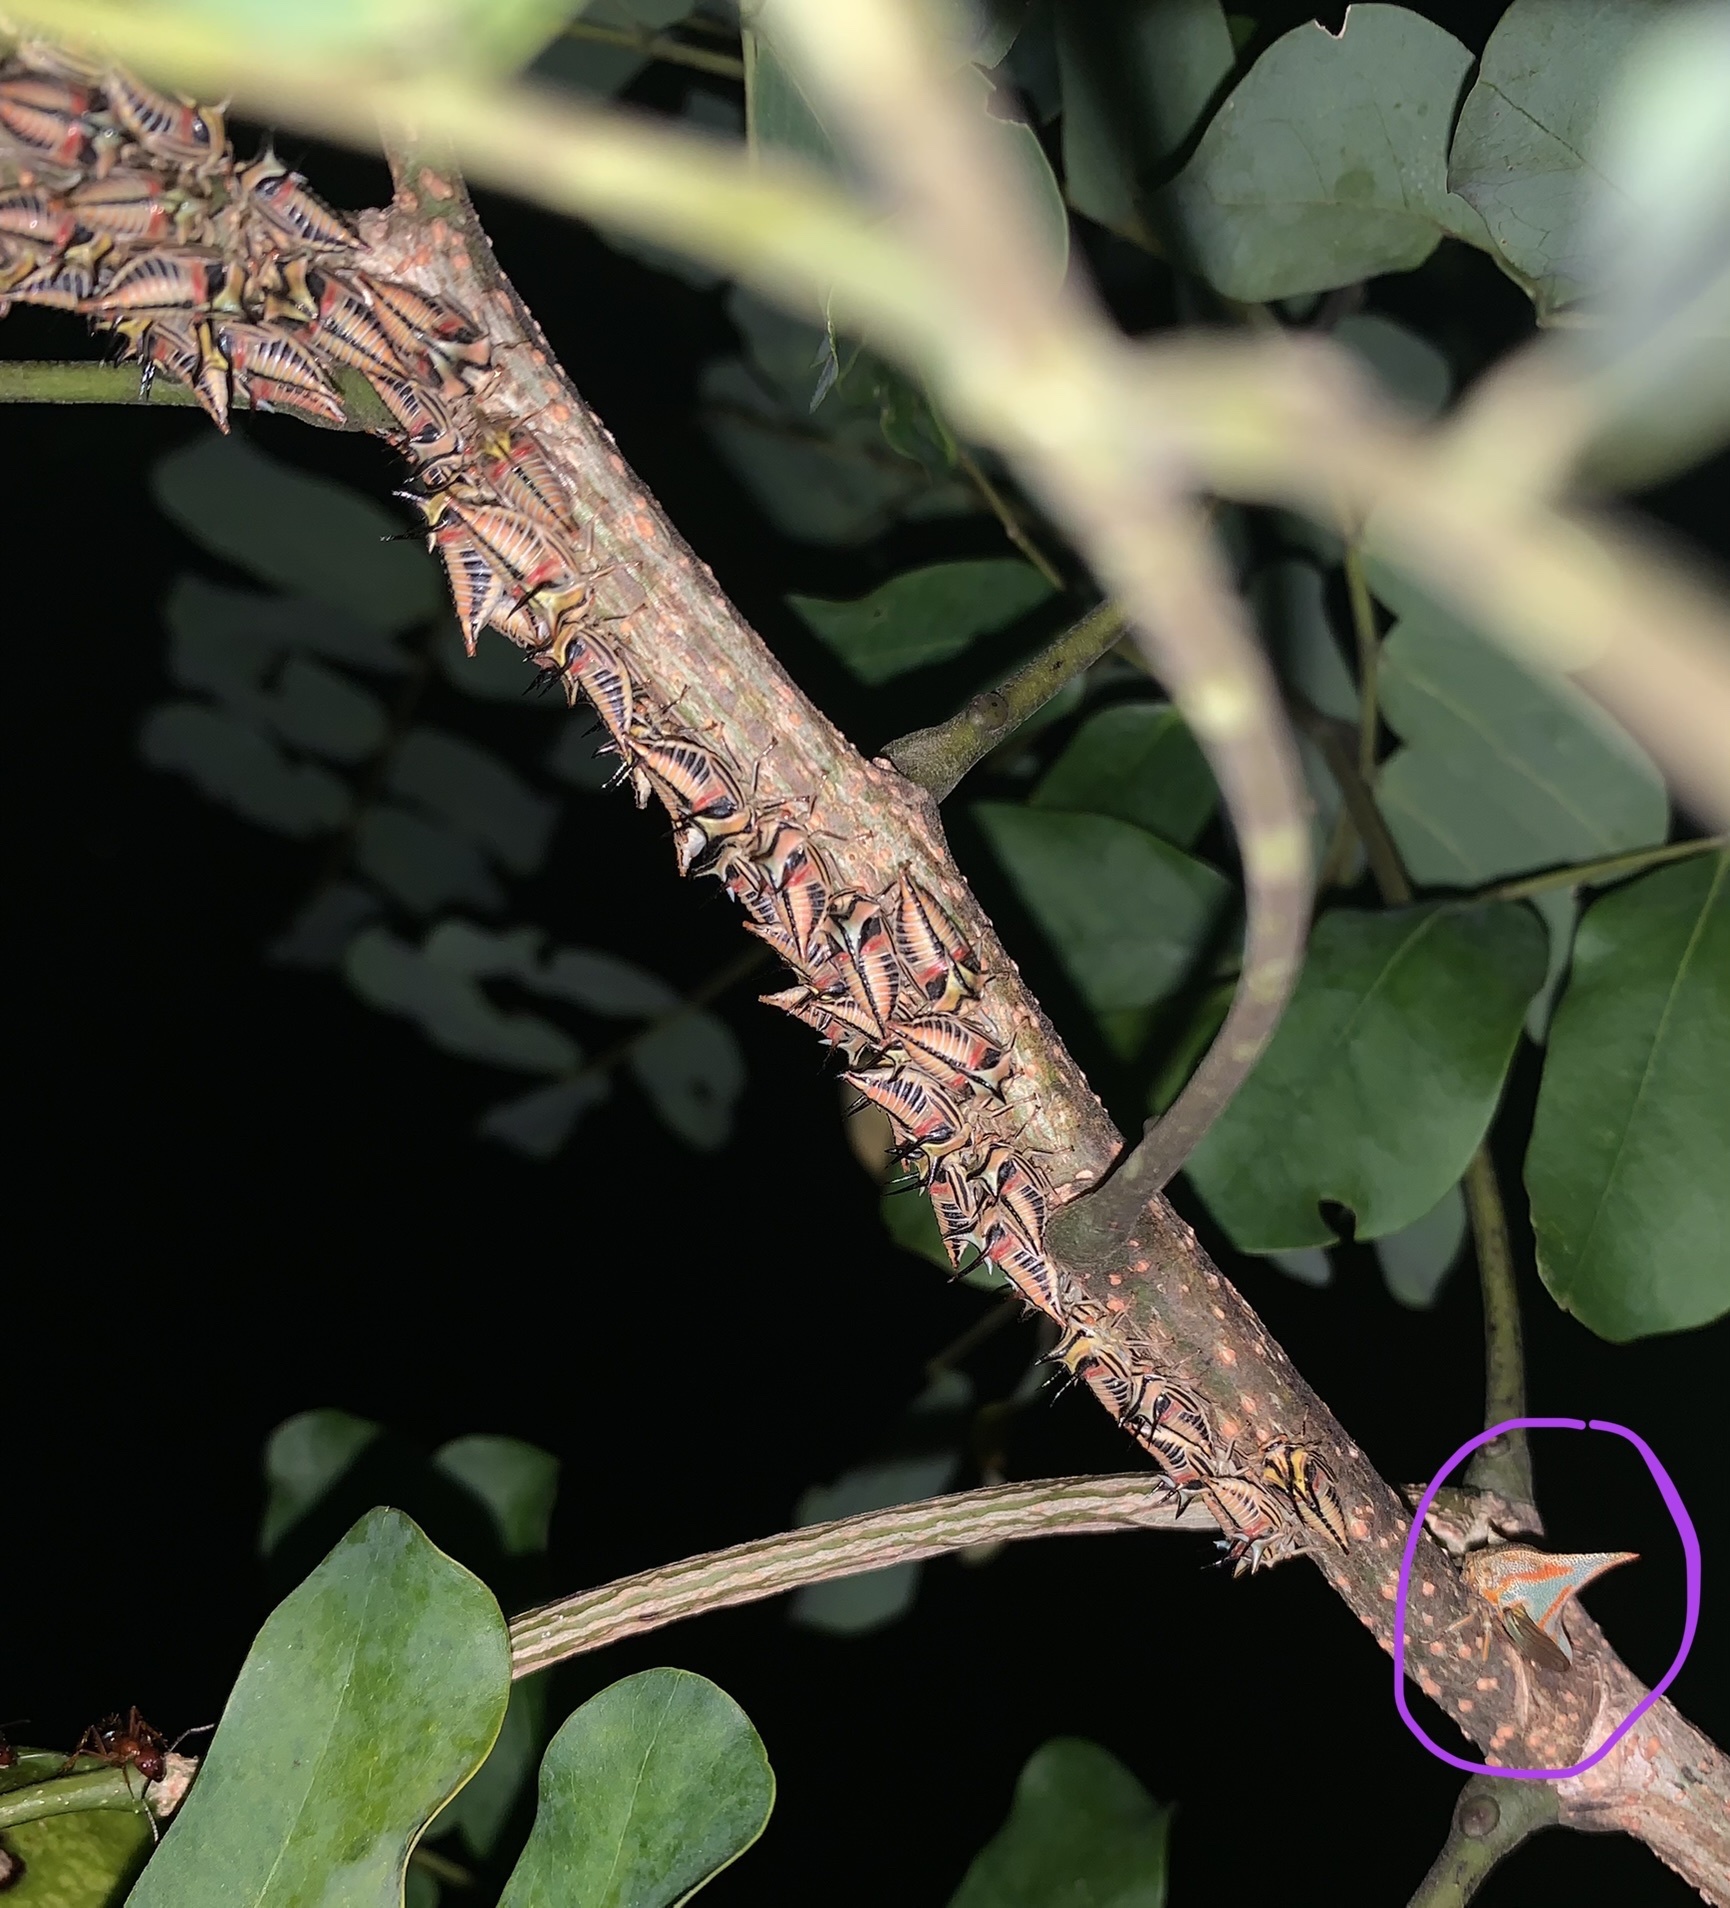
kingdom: Animalia
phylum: Arthropoda
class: Insecta
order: Hemiptera
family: Membracidae
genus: Umbonia
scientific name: Umbonia crassicornis
